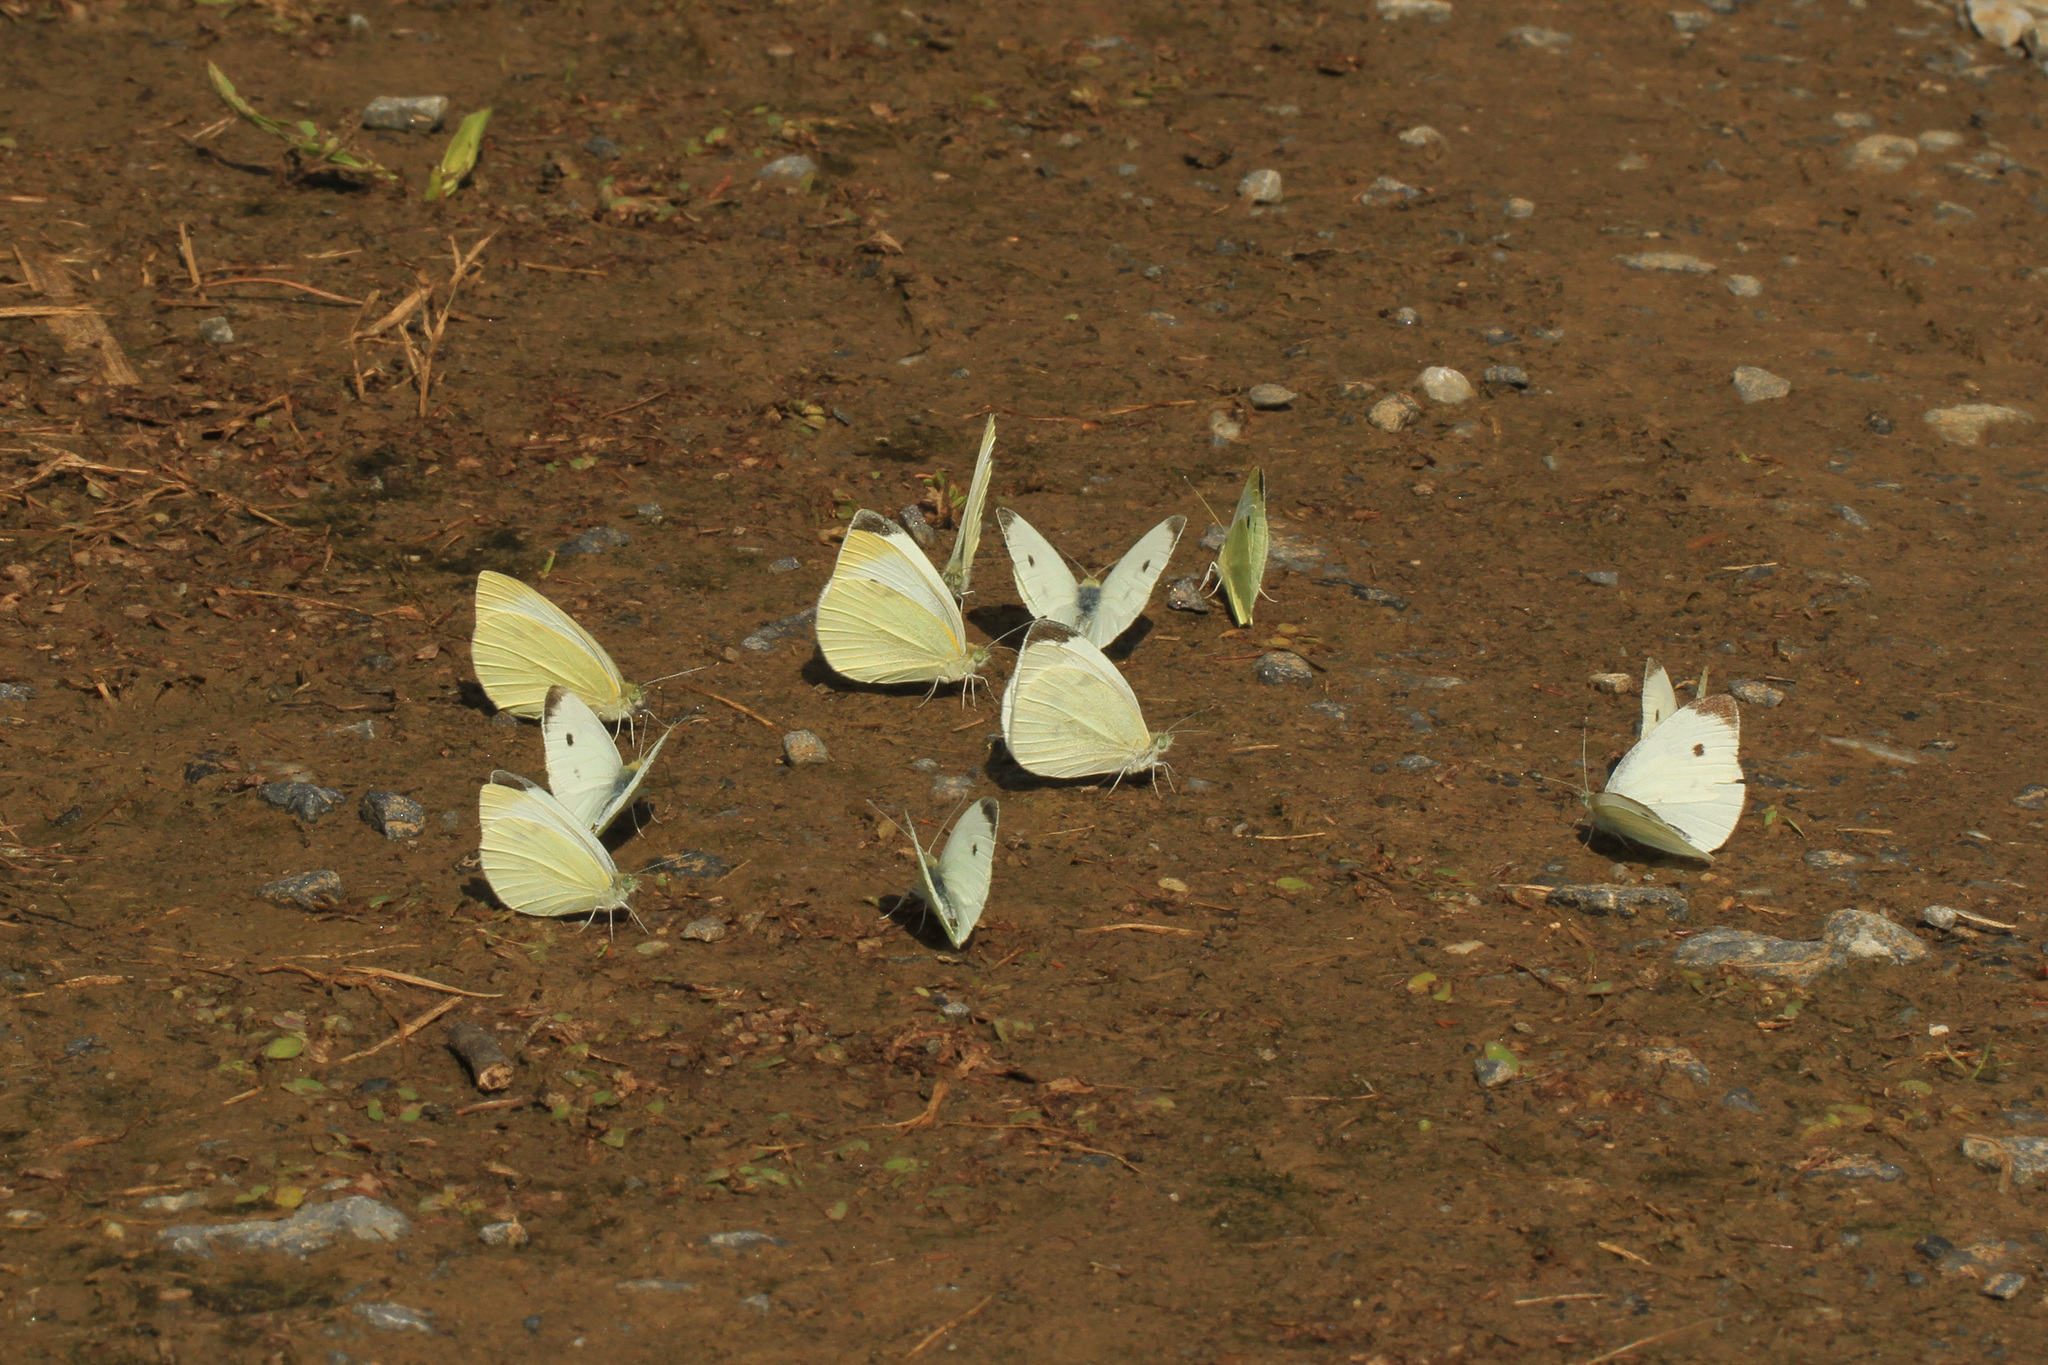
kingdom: Animalia
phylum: Arthropoda
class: Insecta
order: Lepidoptera
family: Pieridae
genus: Pieris
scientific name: Pieris rapae
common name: Small white
